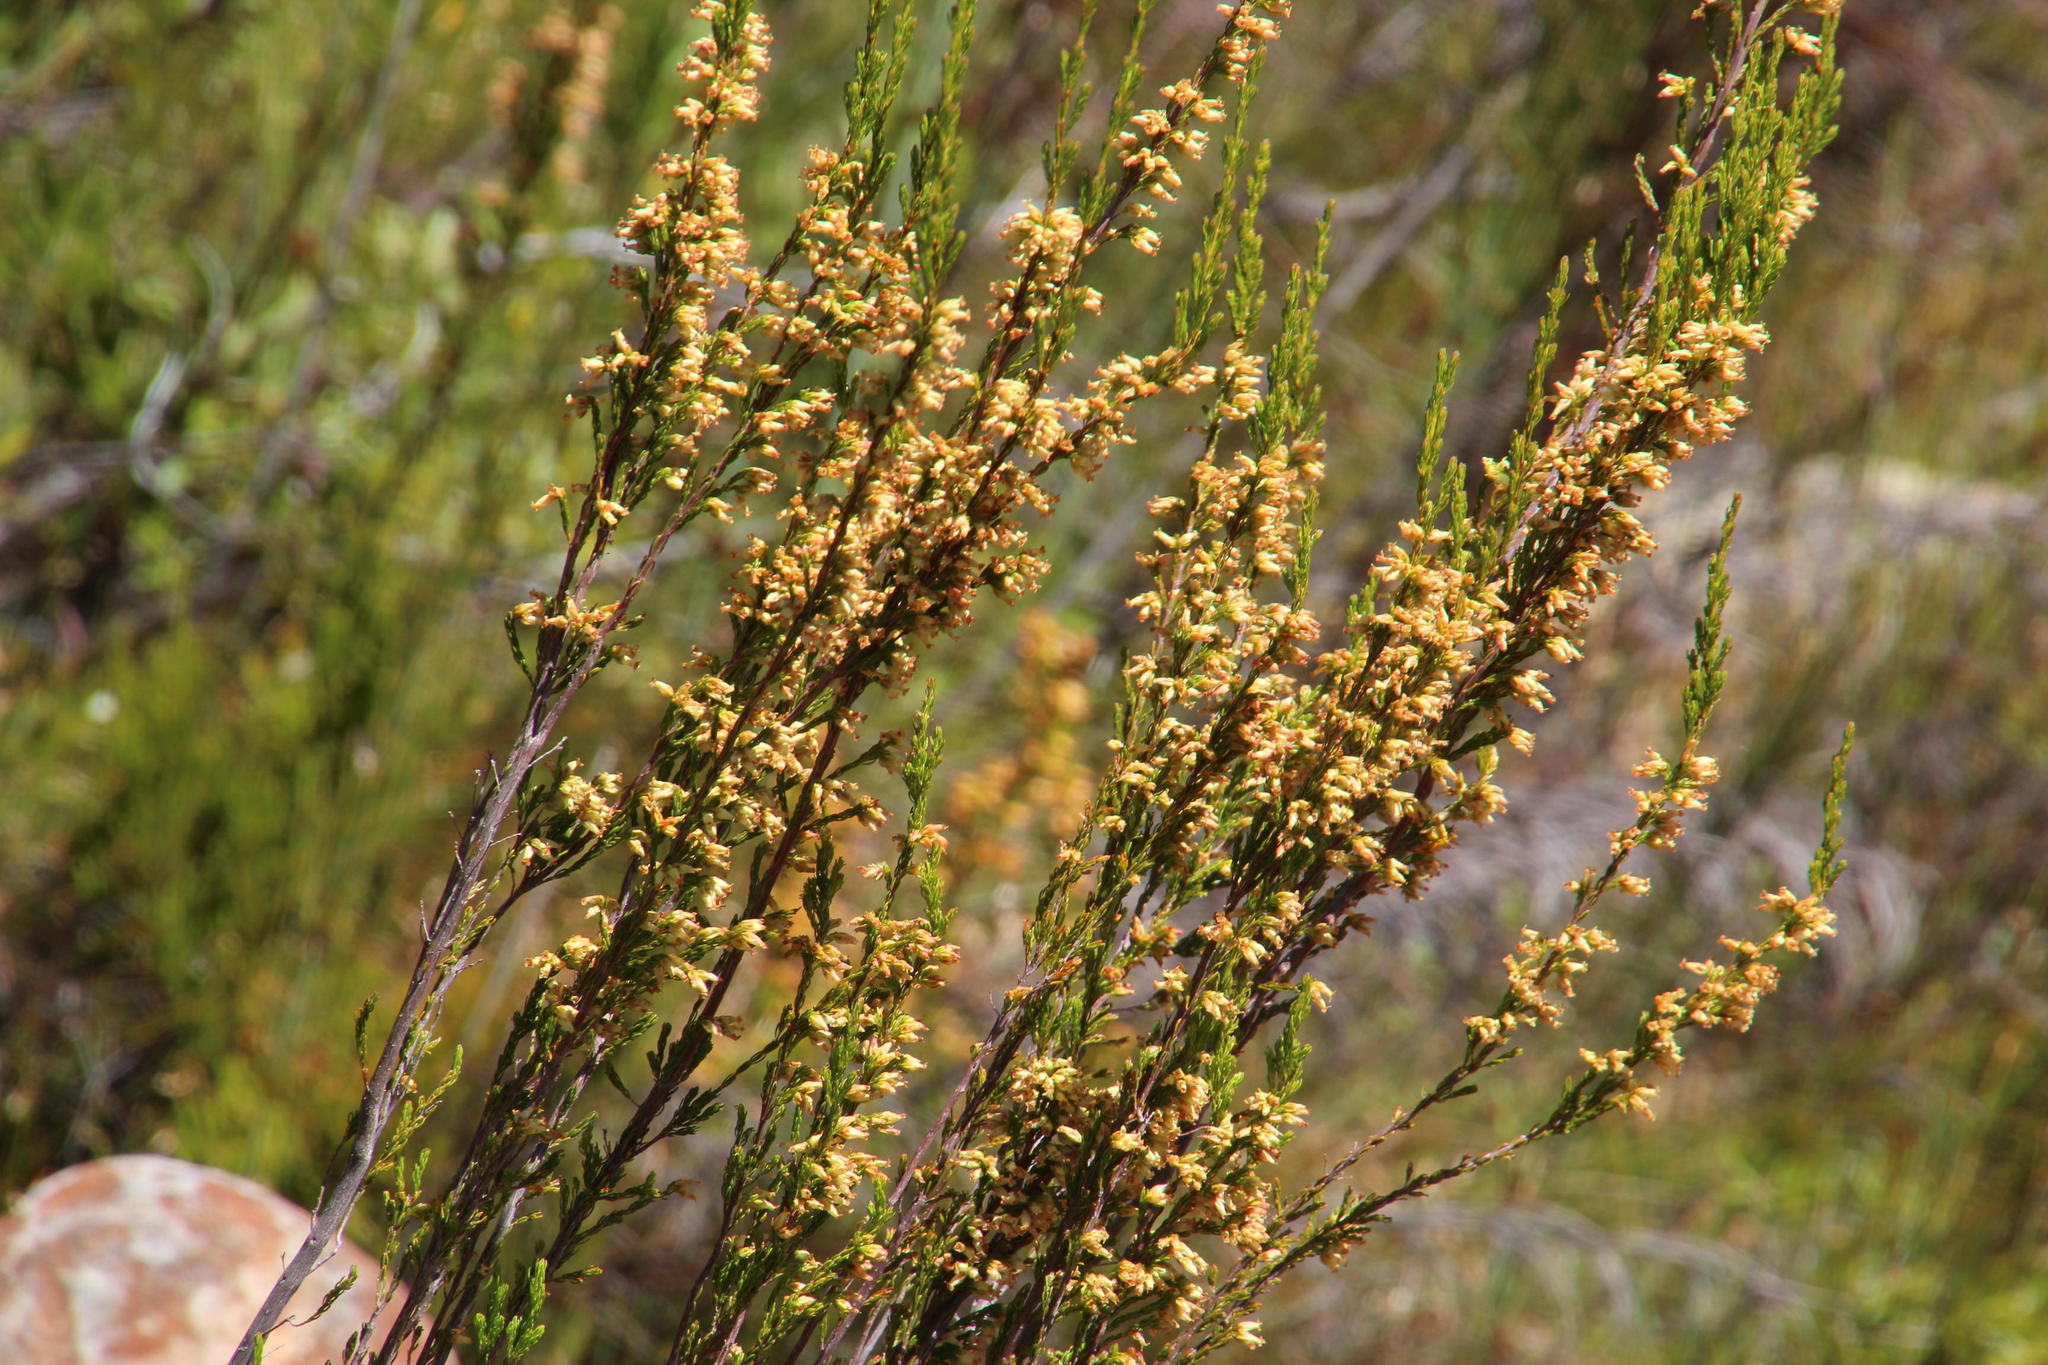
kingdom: Plantae
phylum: Tracheophyta
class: Magnoliopsida
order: Ericales
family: Ericaceae
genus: Erica
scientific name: Erica caffra
